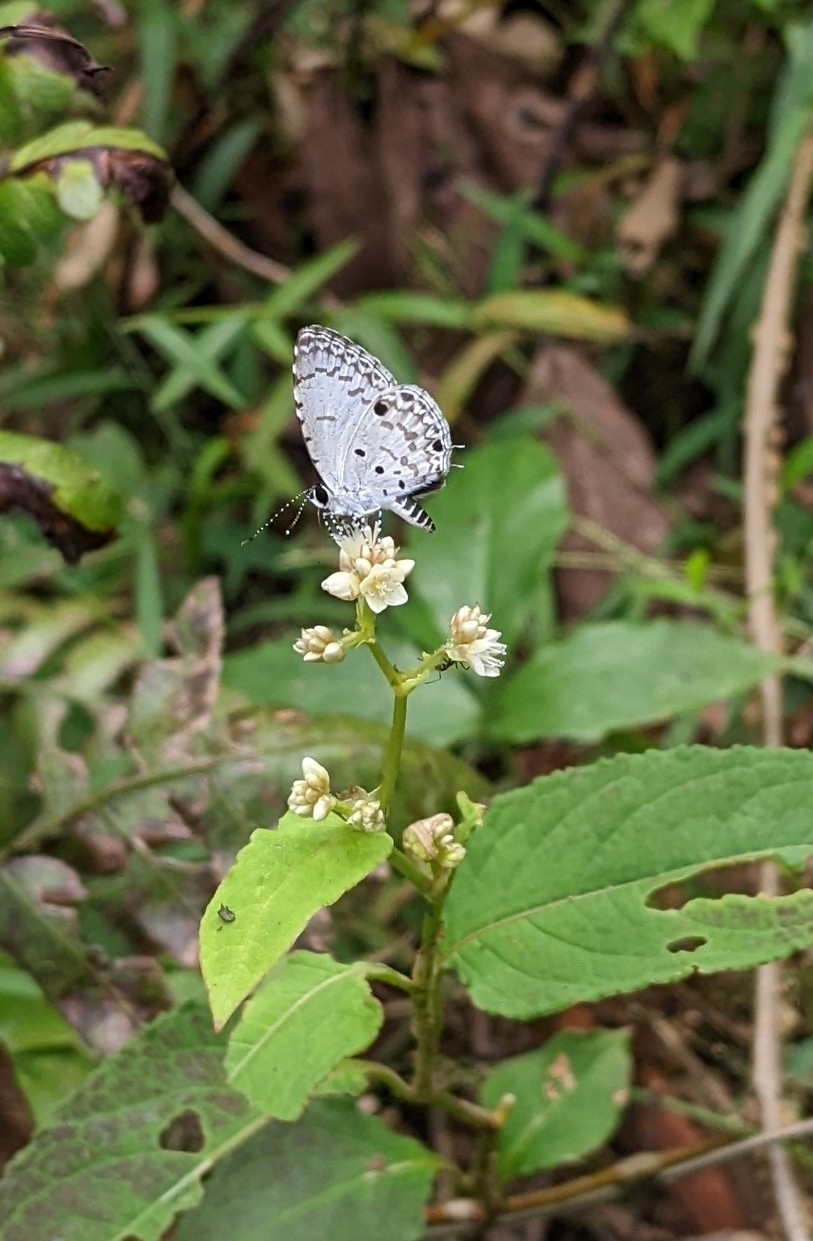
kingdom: Animalia
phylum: Arthropoda
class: Insecta
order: Lepidoptera
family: Lycaenidae
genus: Megisba
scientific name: Megisba malaya
